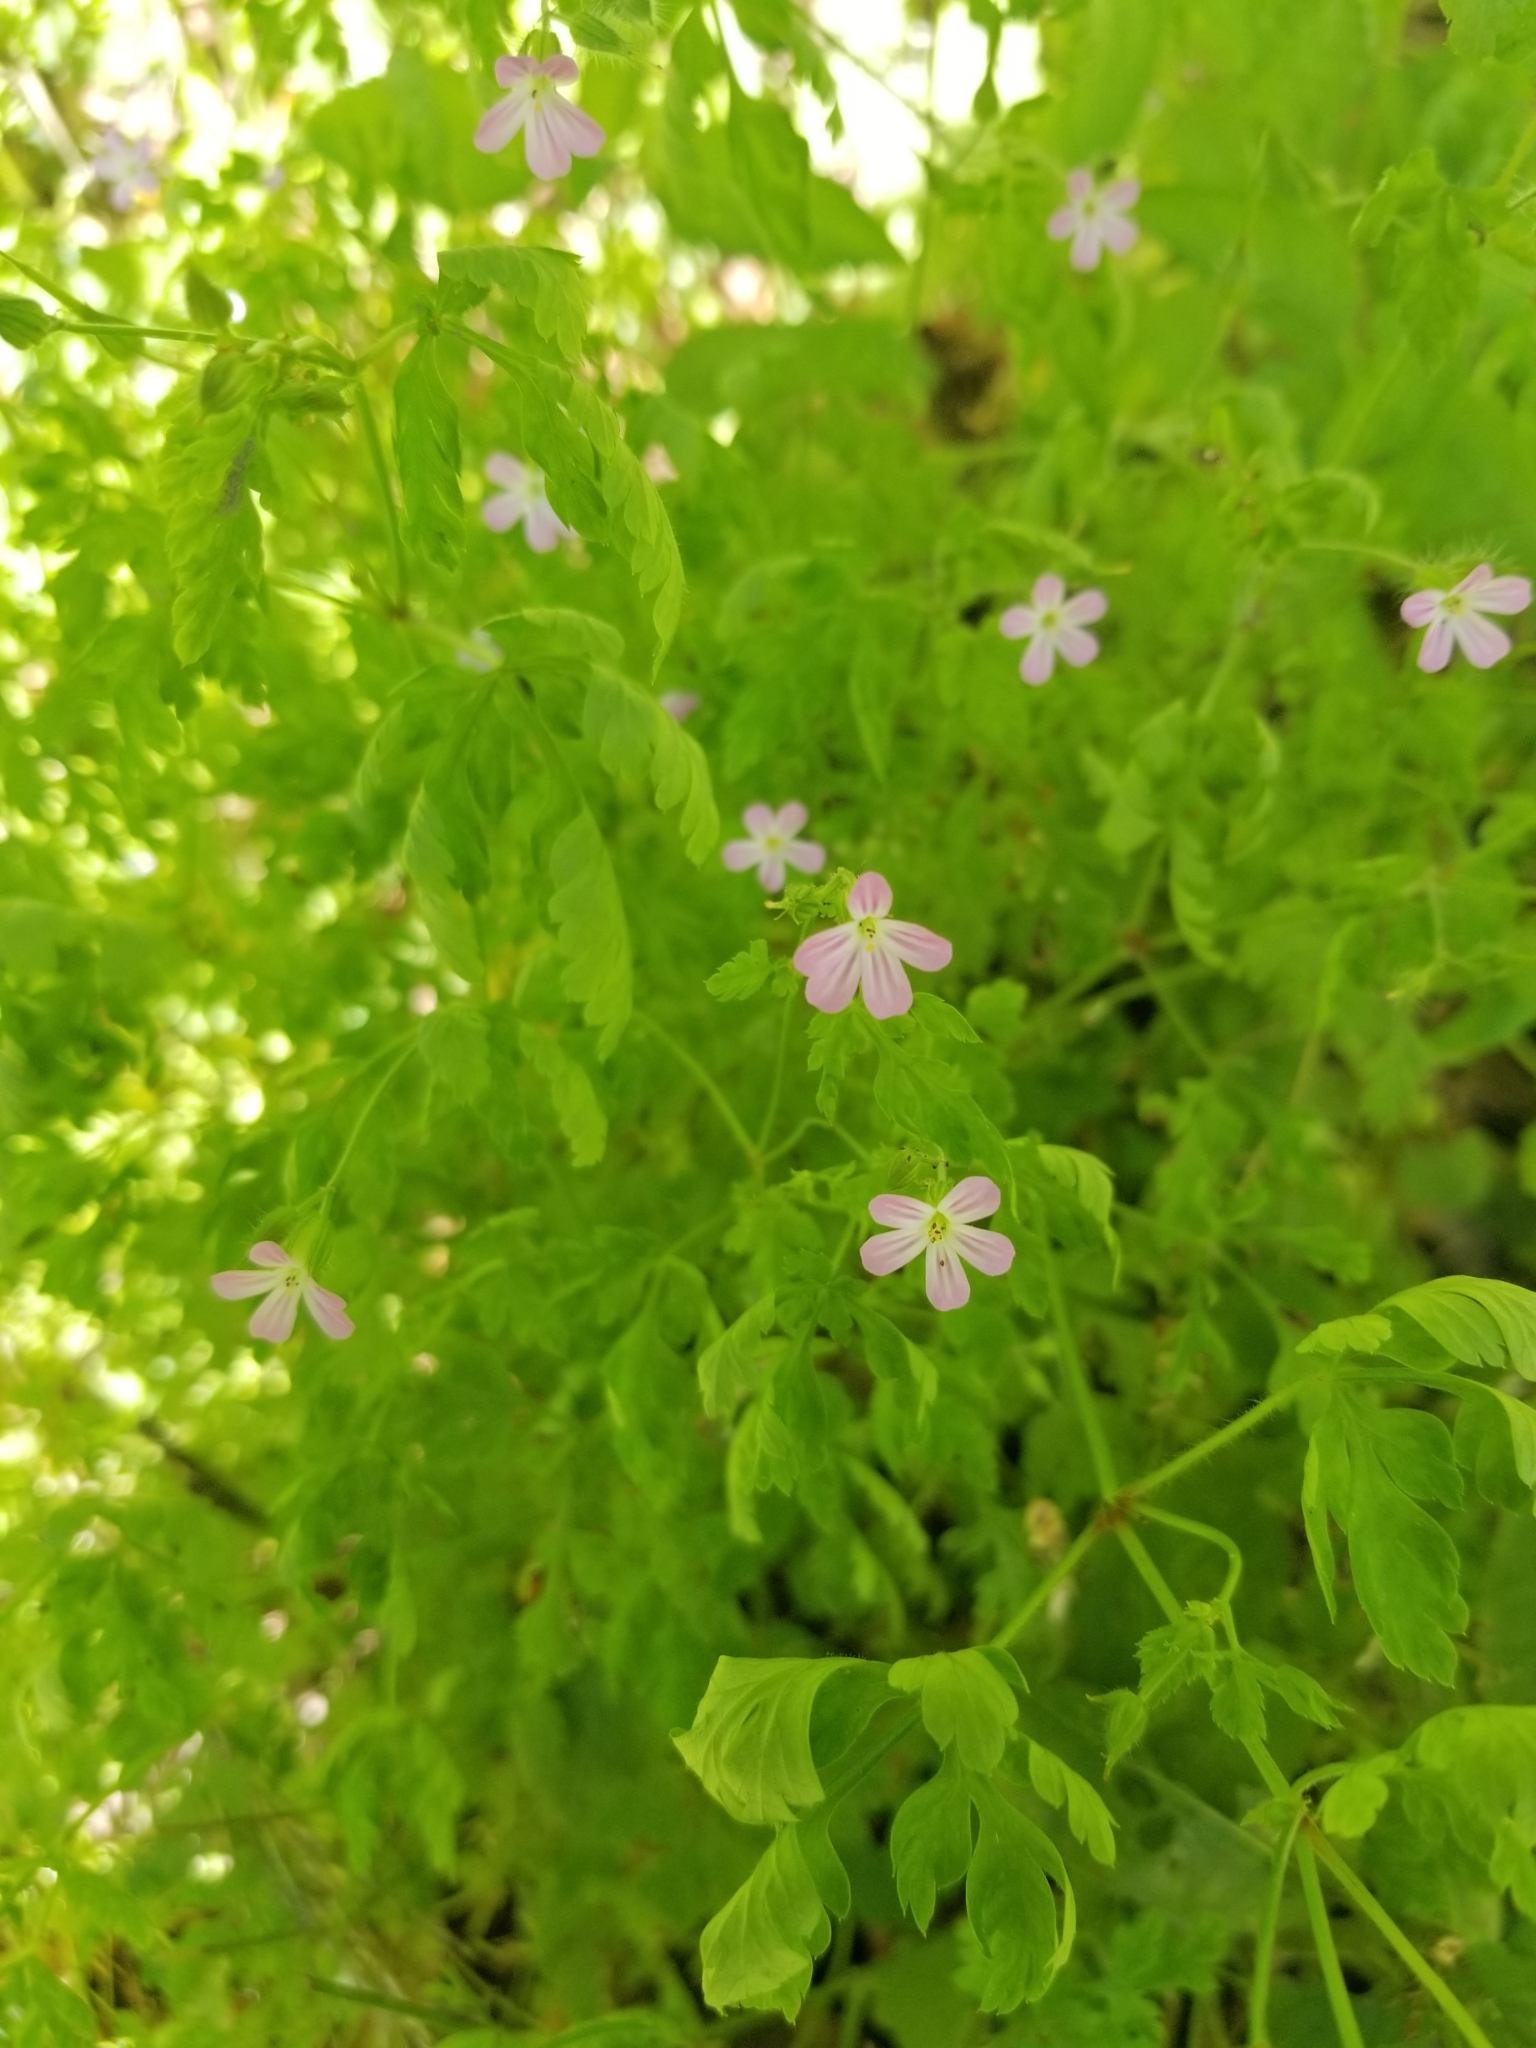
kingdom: Plantae
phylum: Tracheophyta
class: Magnoliopsida
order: Geraniales
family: Geraniaceae
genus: Geranium
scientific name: Geranium robertianum
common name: Herb-robert
